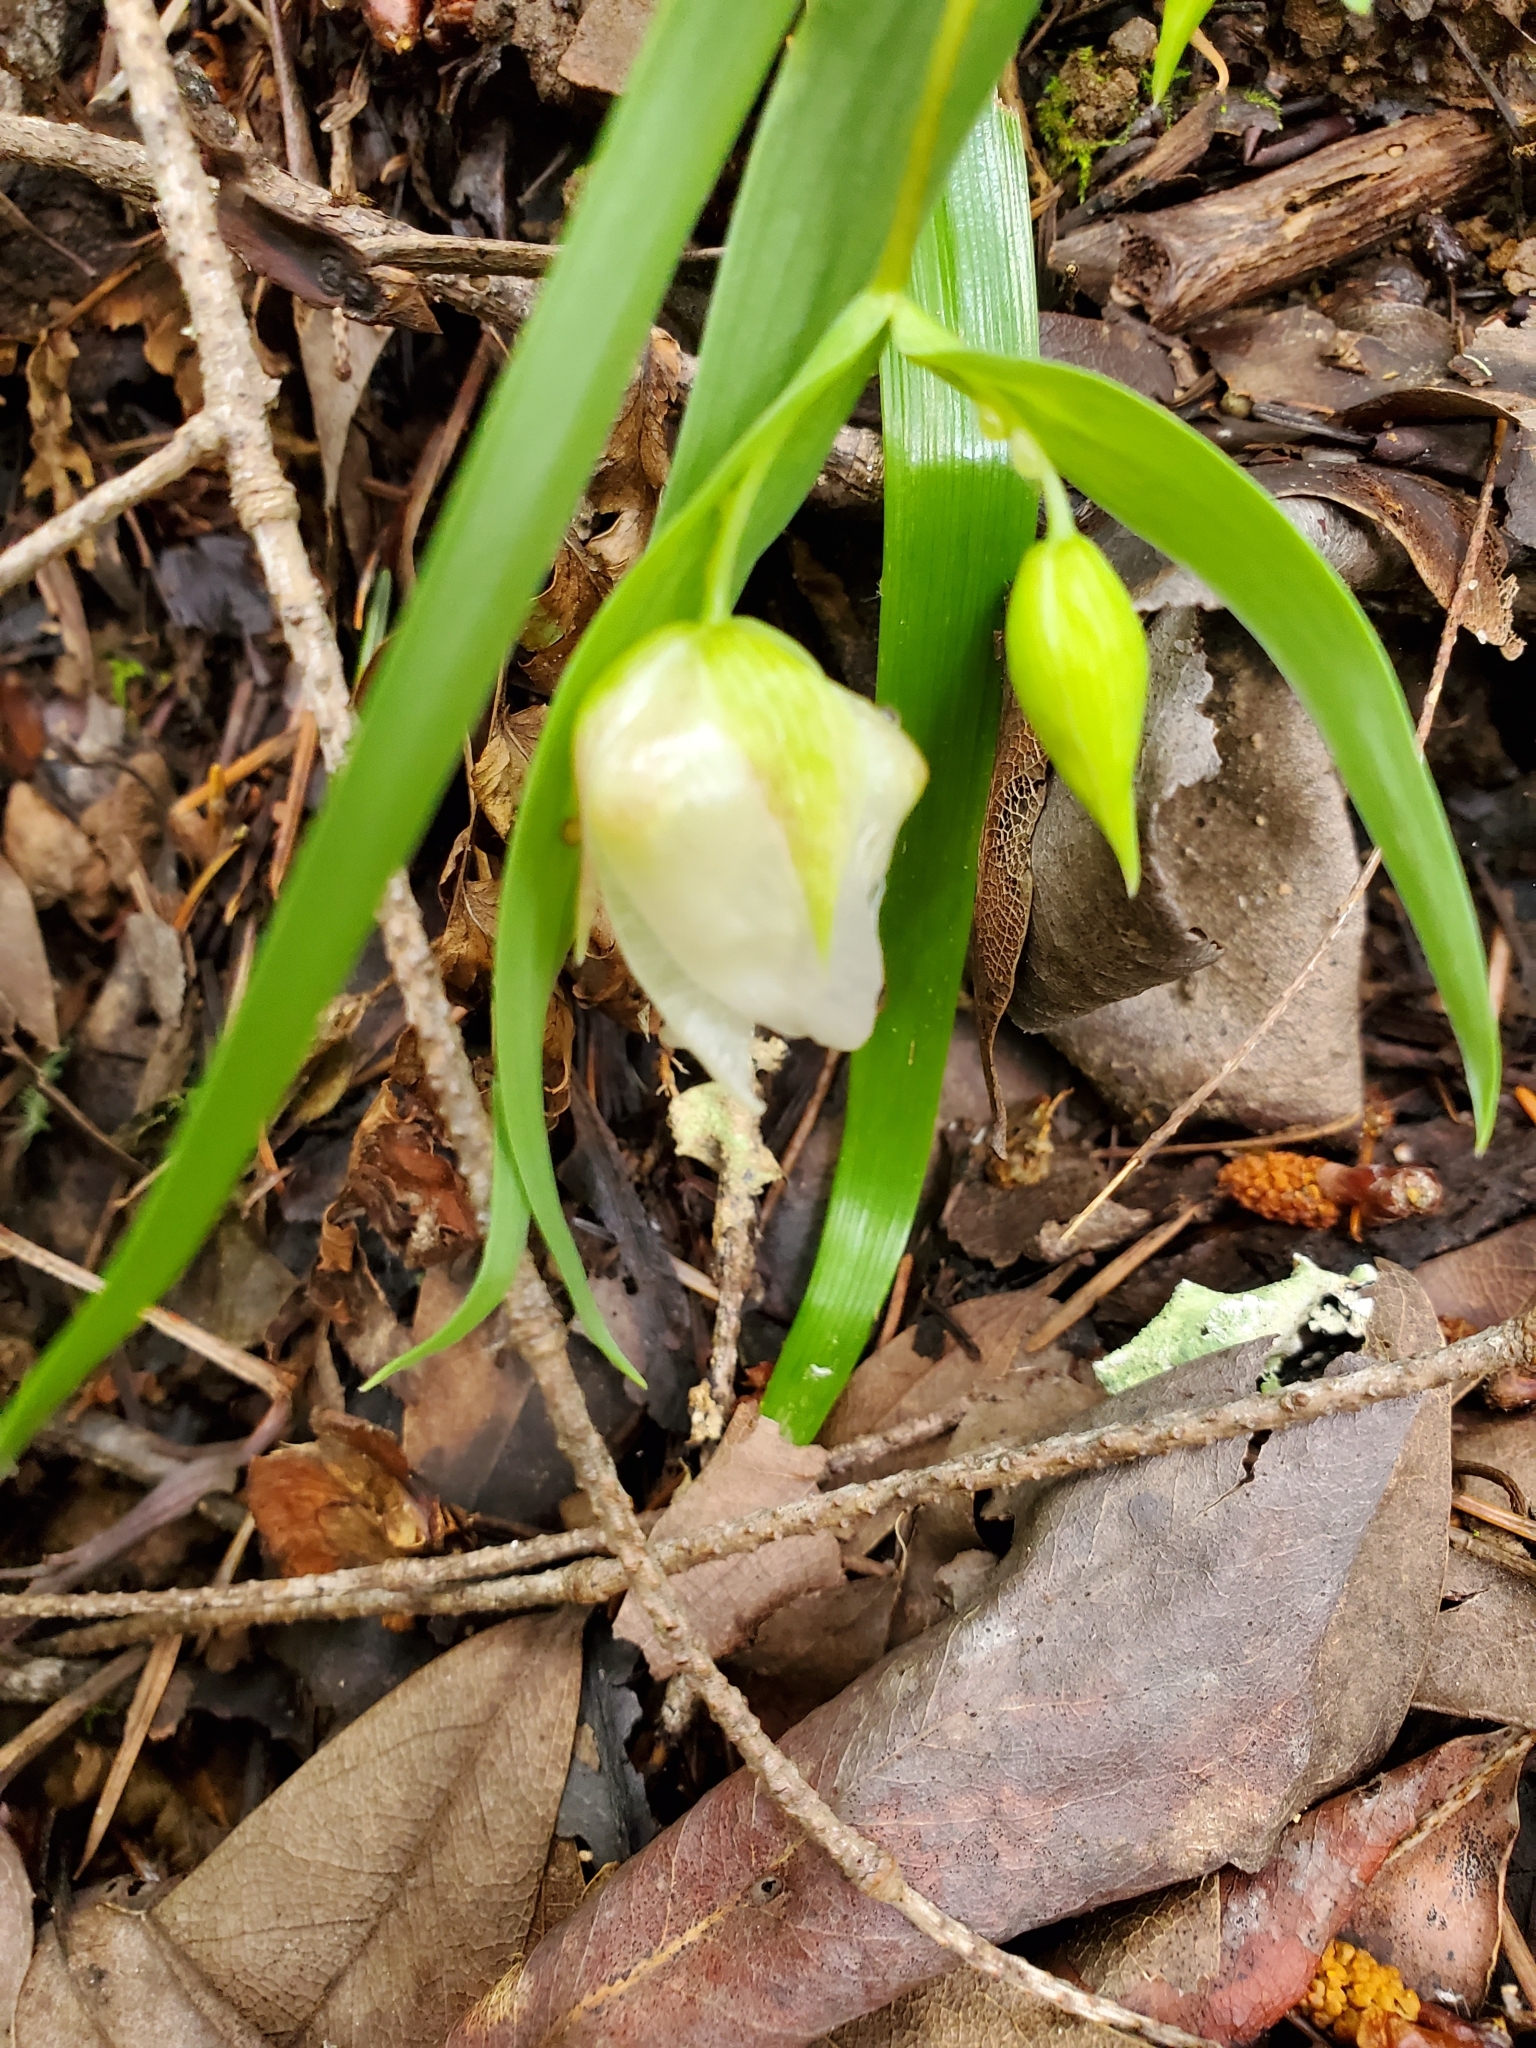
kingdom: Plantae
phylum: Tracheophyta
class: Liliopsida
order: Liliales
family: Liliaceae
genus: Calochortus
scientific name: Calochortus albus
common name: Fairy-lantern
